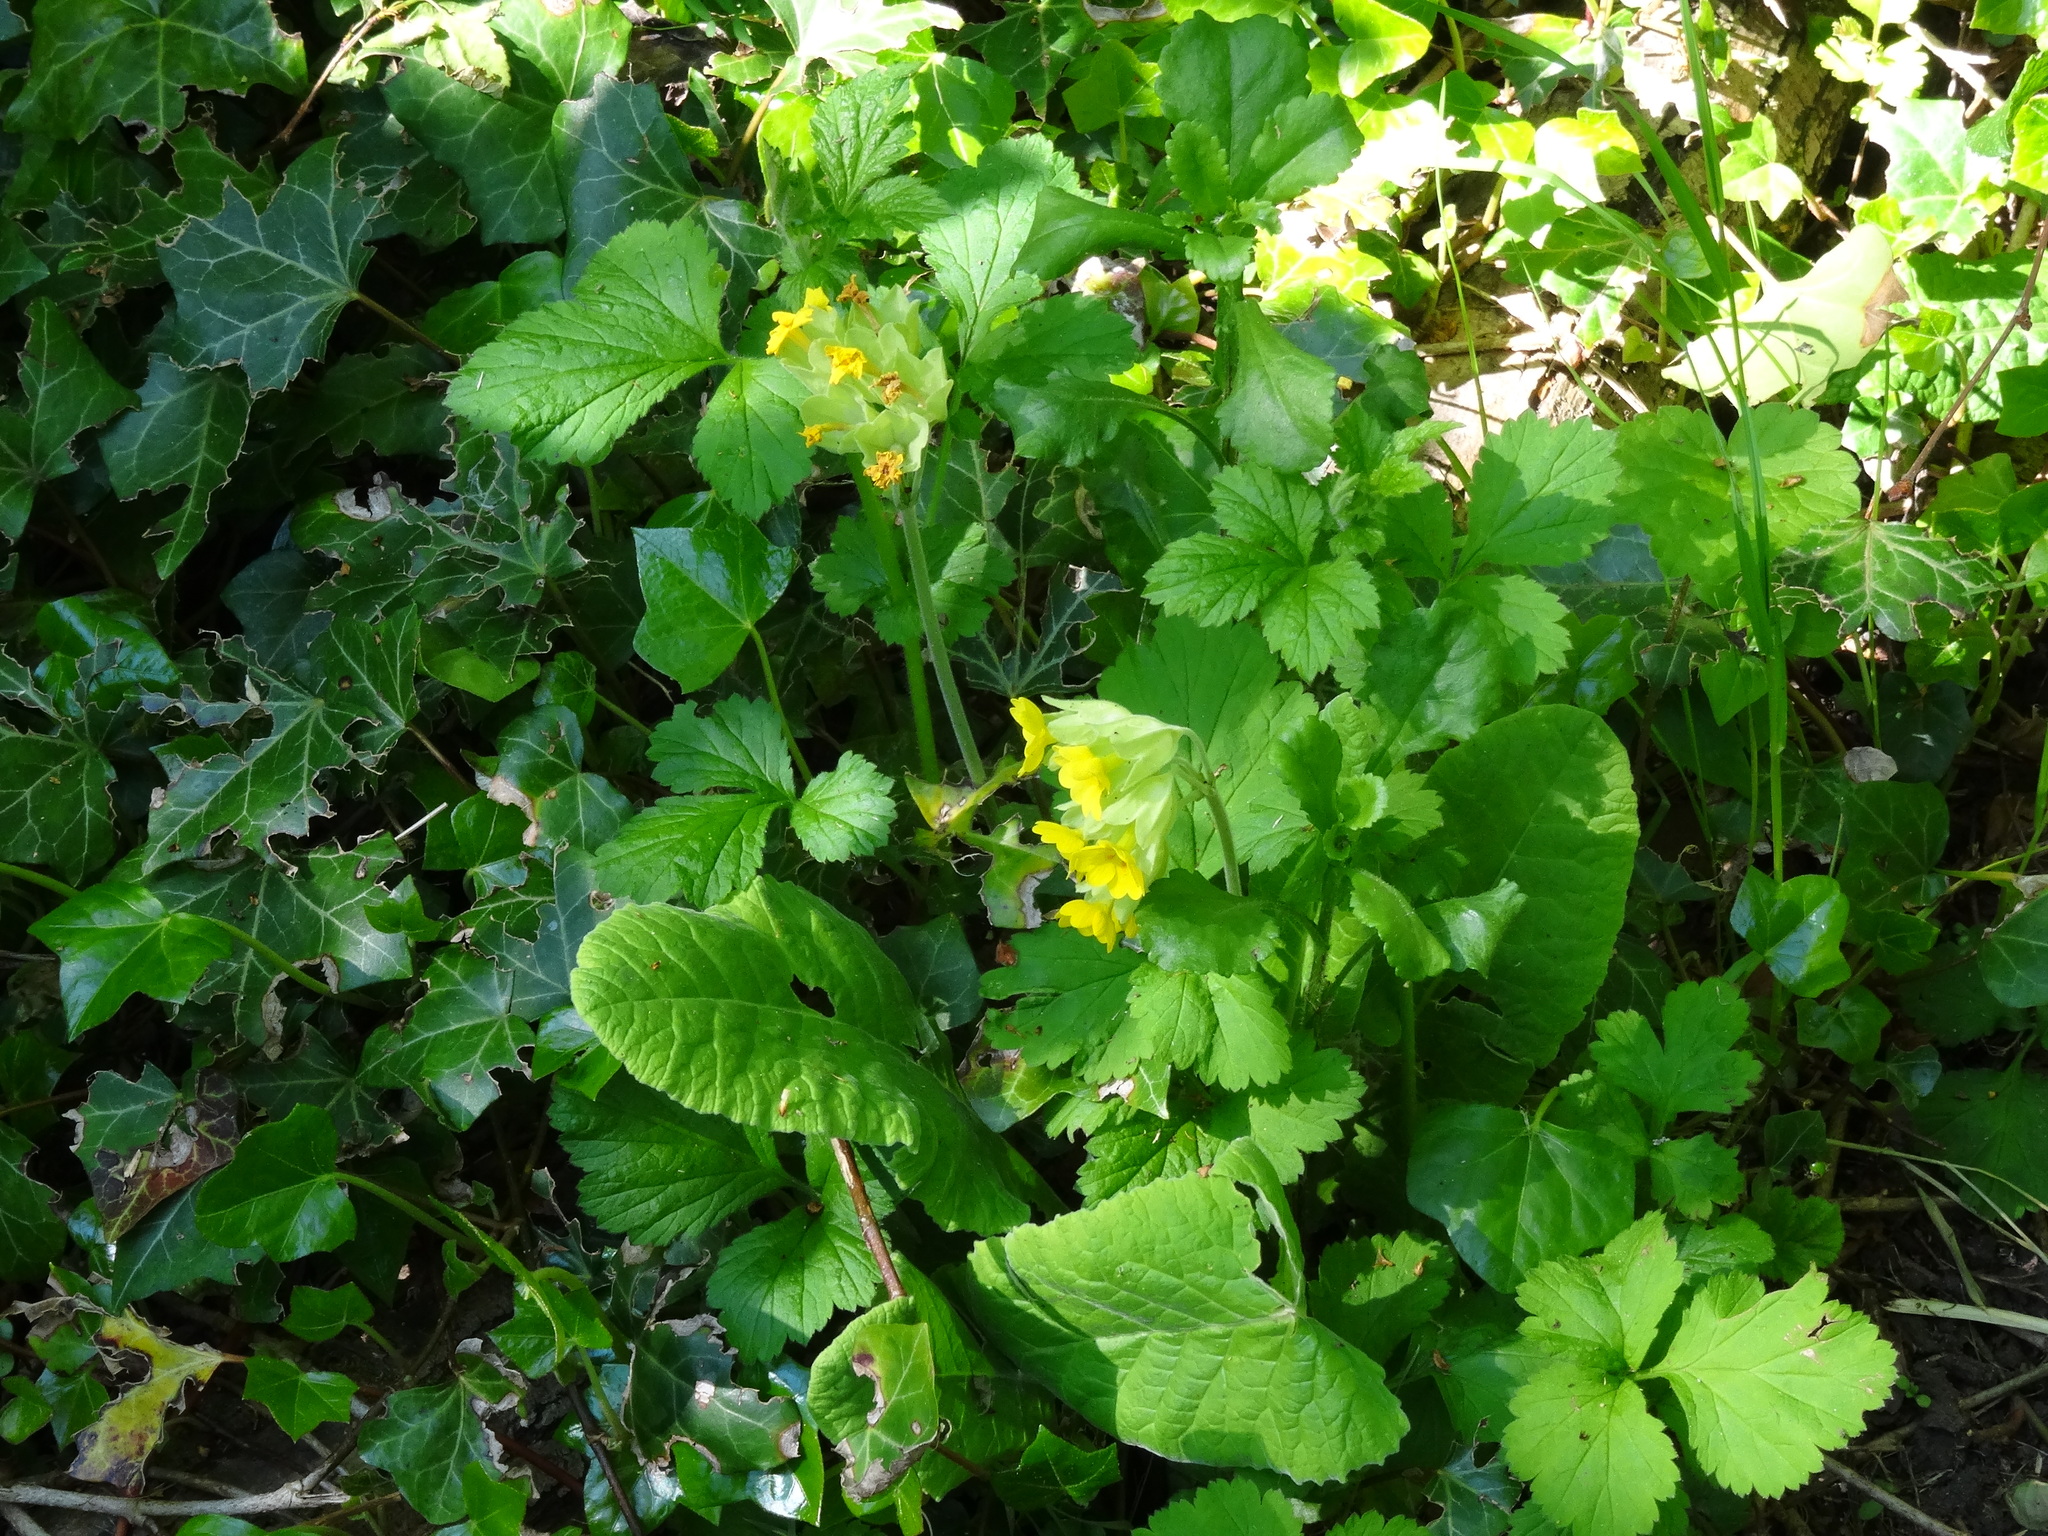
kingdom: Plantae
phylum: Tracheophyta
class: Magnoliopsida
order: Ericales
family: Primulaceae
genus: Primula
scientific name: Primula veris
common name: Cowslip
